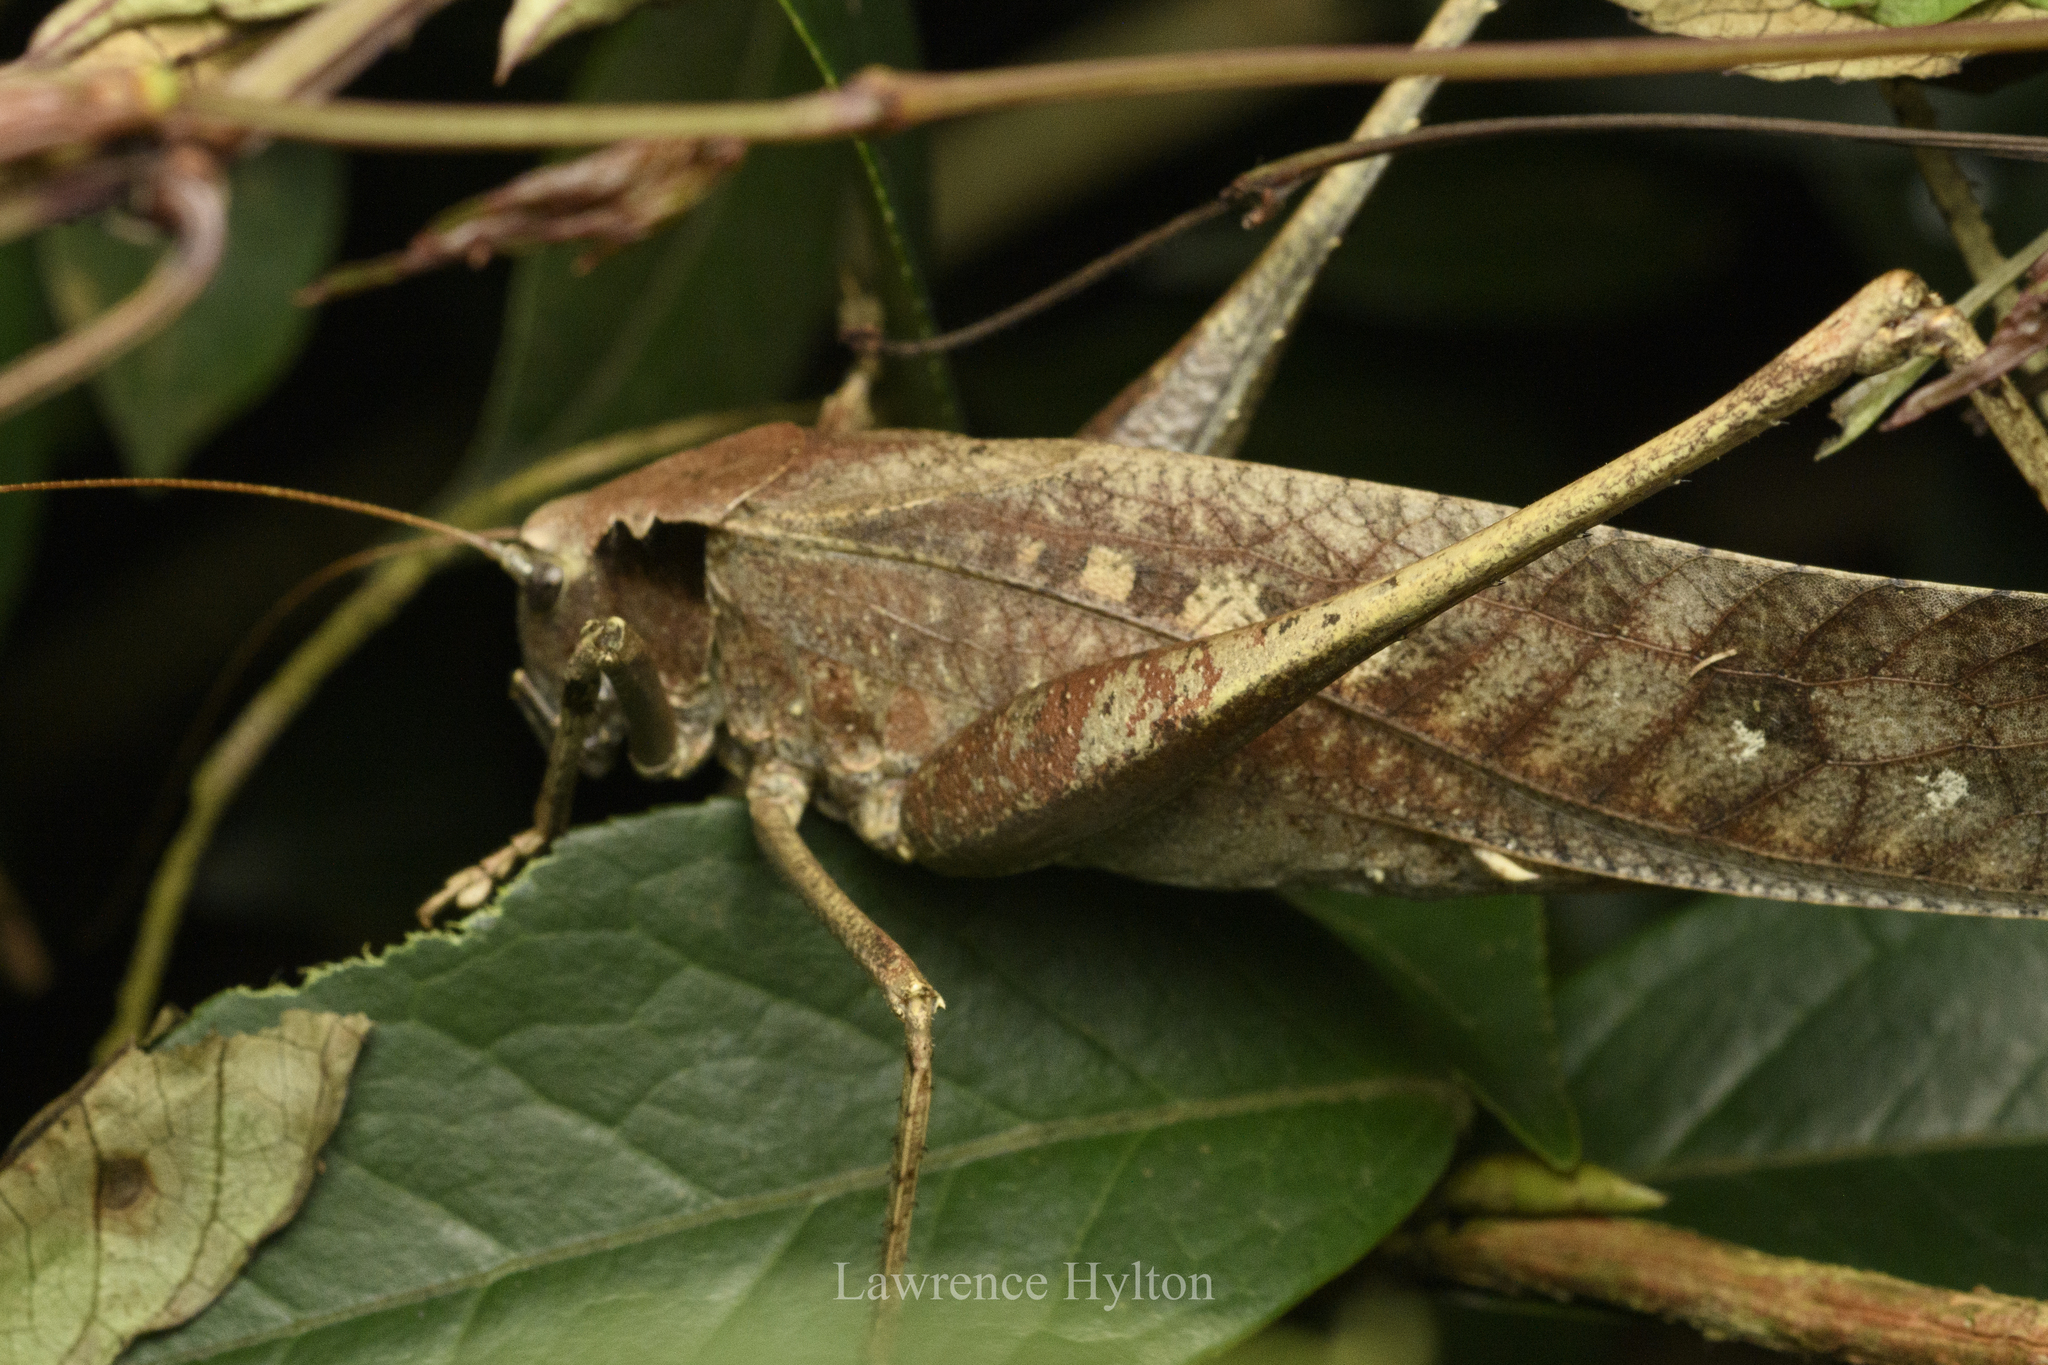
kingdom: Animalia
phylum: Arthropoda
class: Insecta
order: Orthoptera
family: Tettigoniidae
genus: Mecopoda
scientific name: Mecopoda elongata
